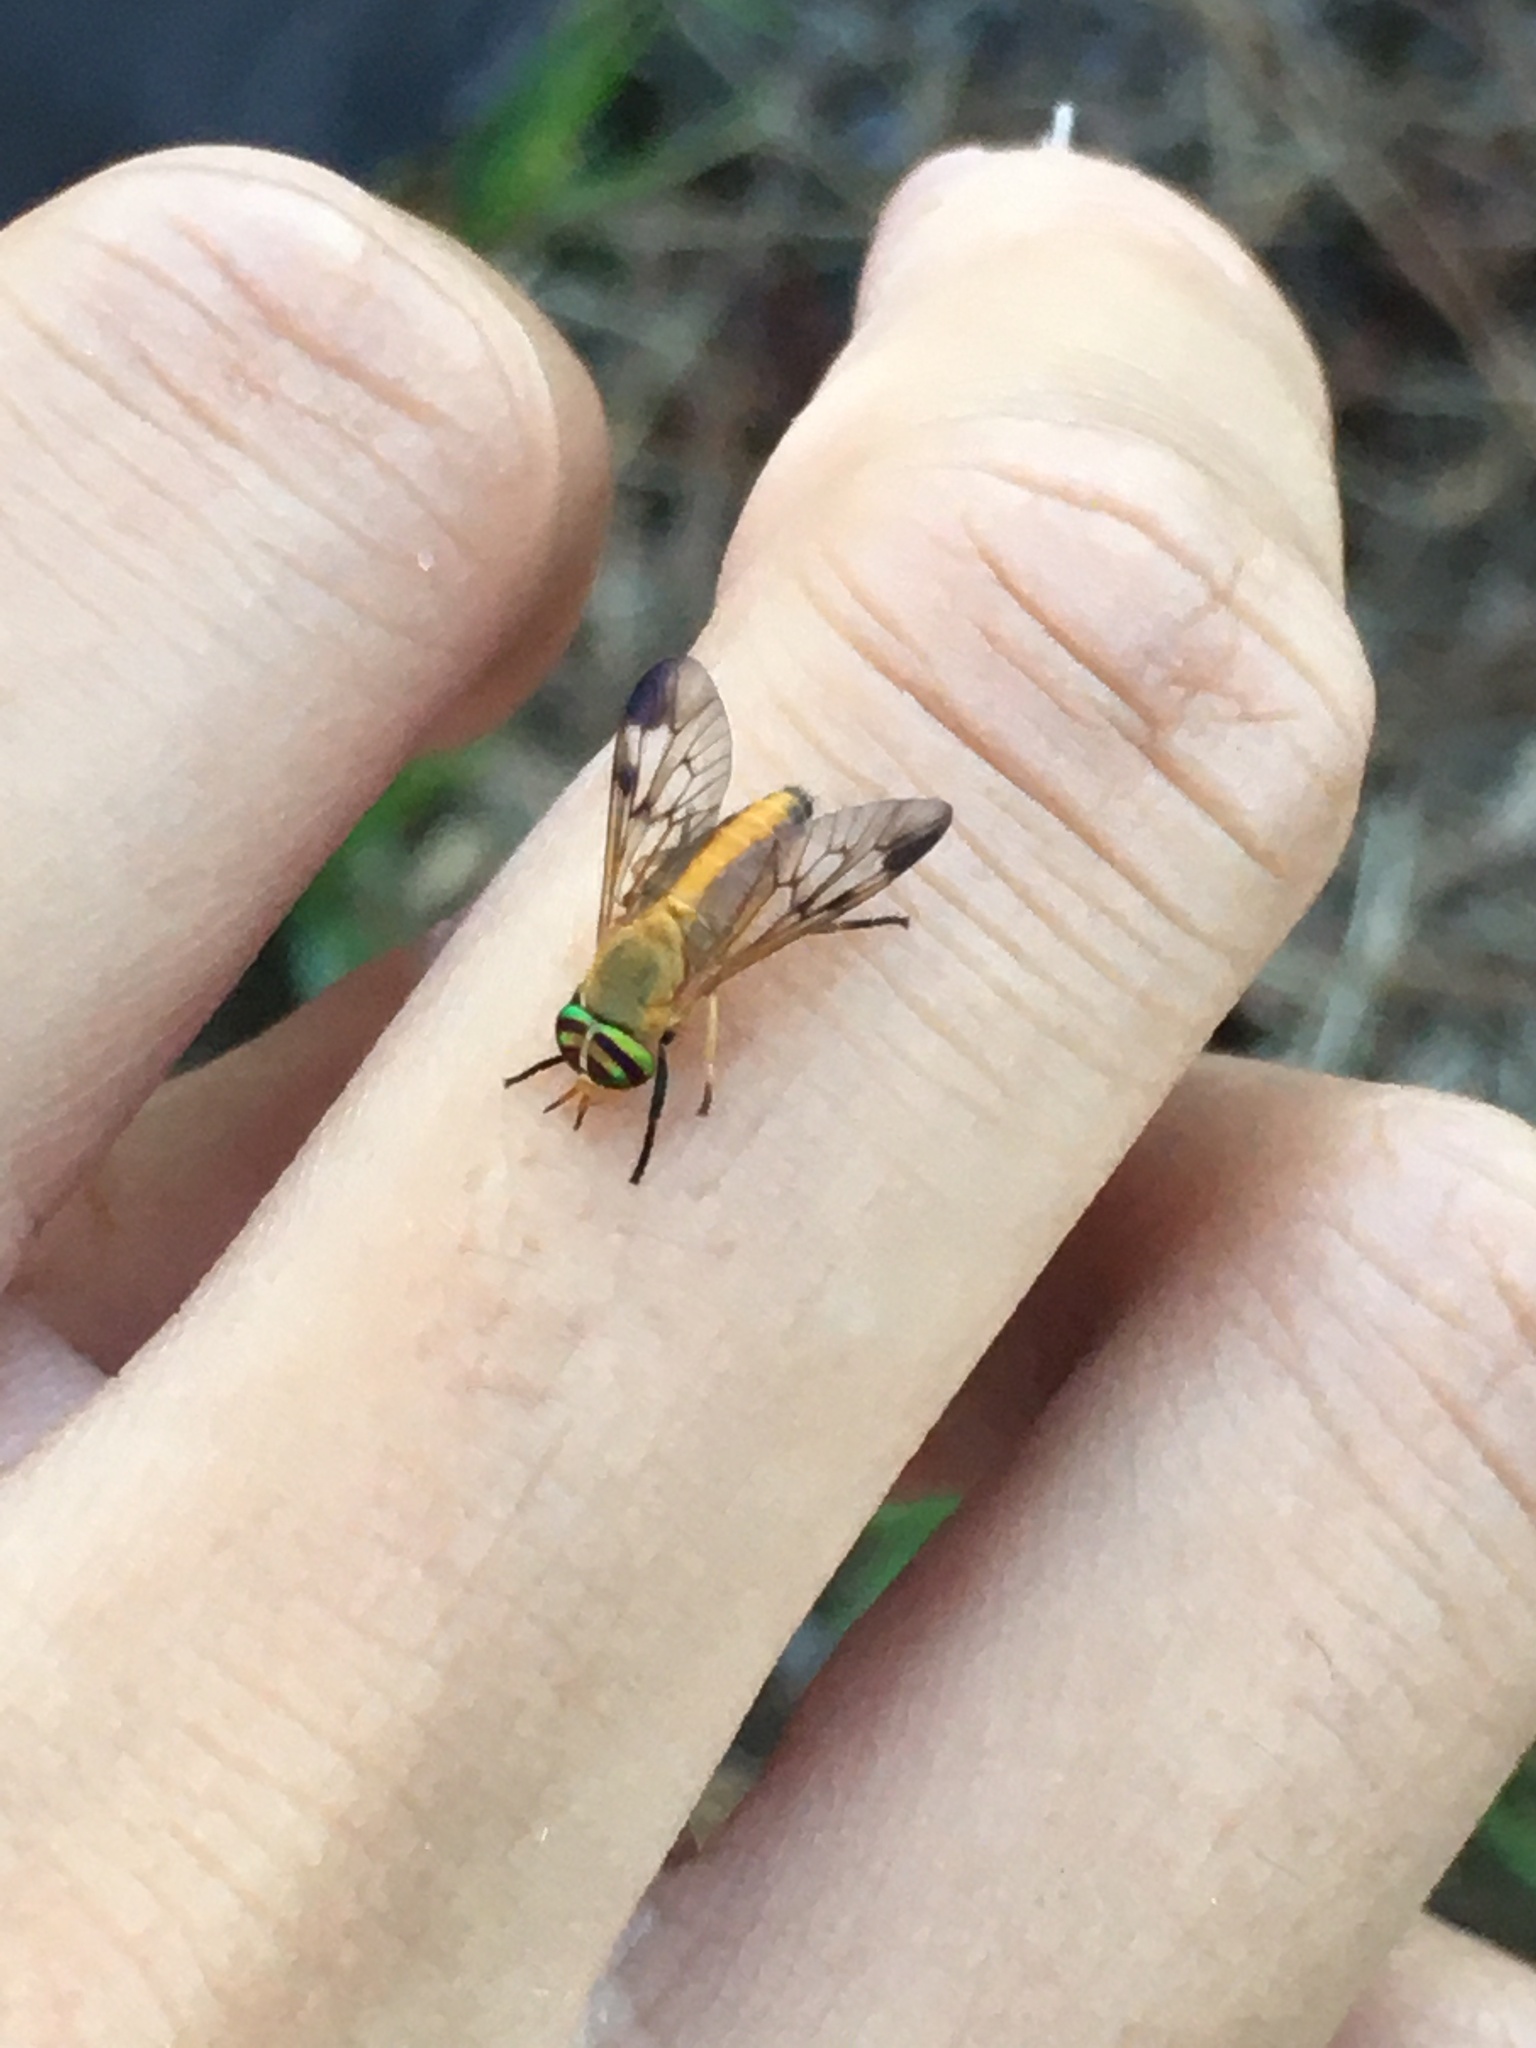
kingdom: Animalia
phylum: Arthropoda
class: Insecta
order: Diptera
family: Tabanidae
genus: Diachlorus
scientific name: Diachlorus ferrugatus
